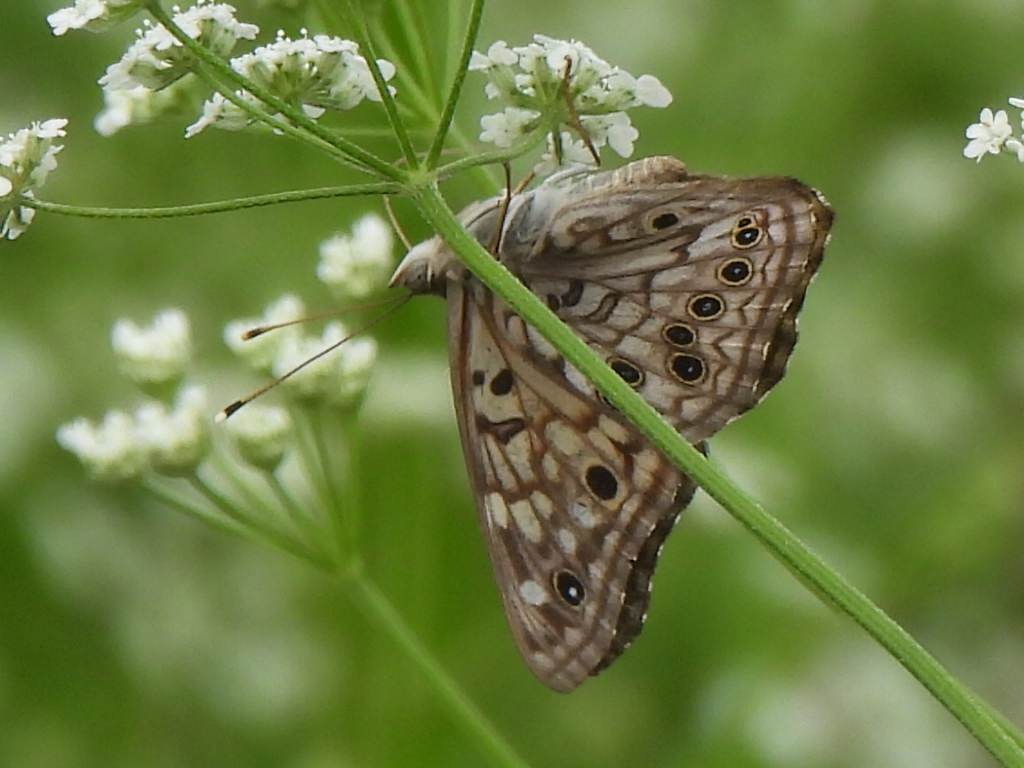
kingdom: Animalia
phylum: Arthropoda
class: Insecta
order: Lepidoptera
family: Nymphalidae
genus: Asterocampa
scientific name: Asterocampa celtis
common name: Hackberry emperor
